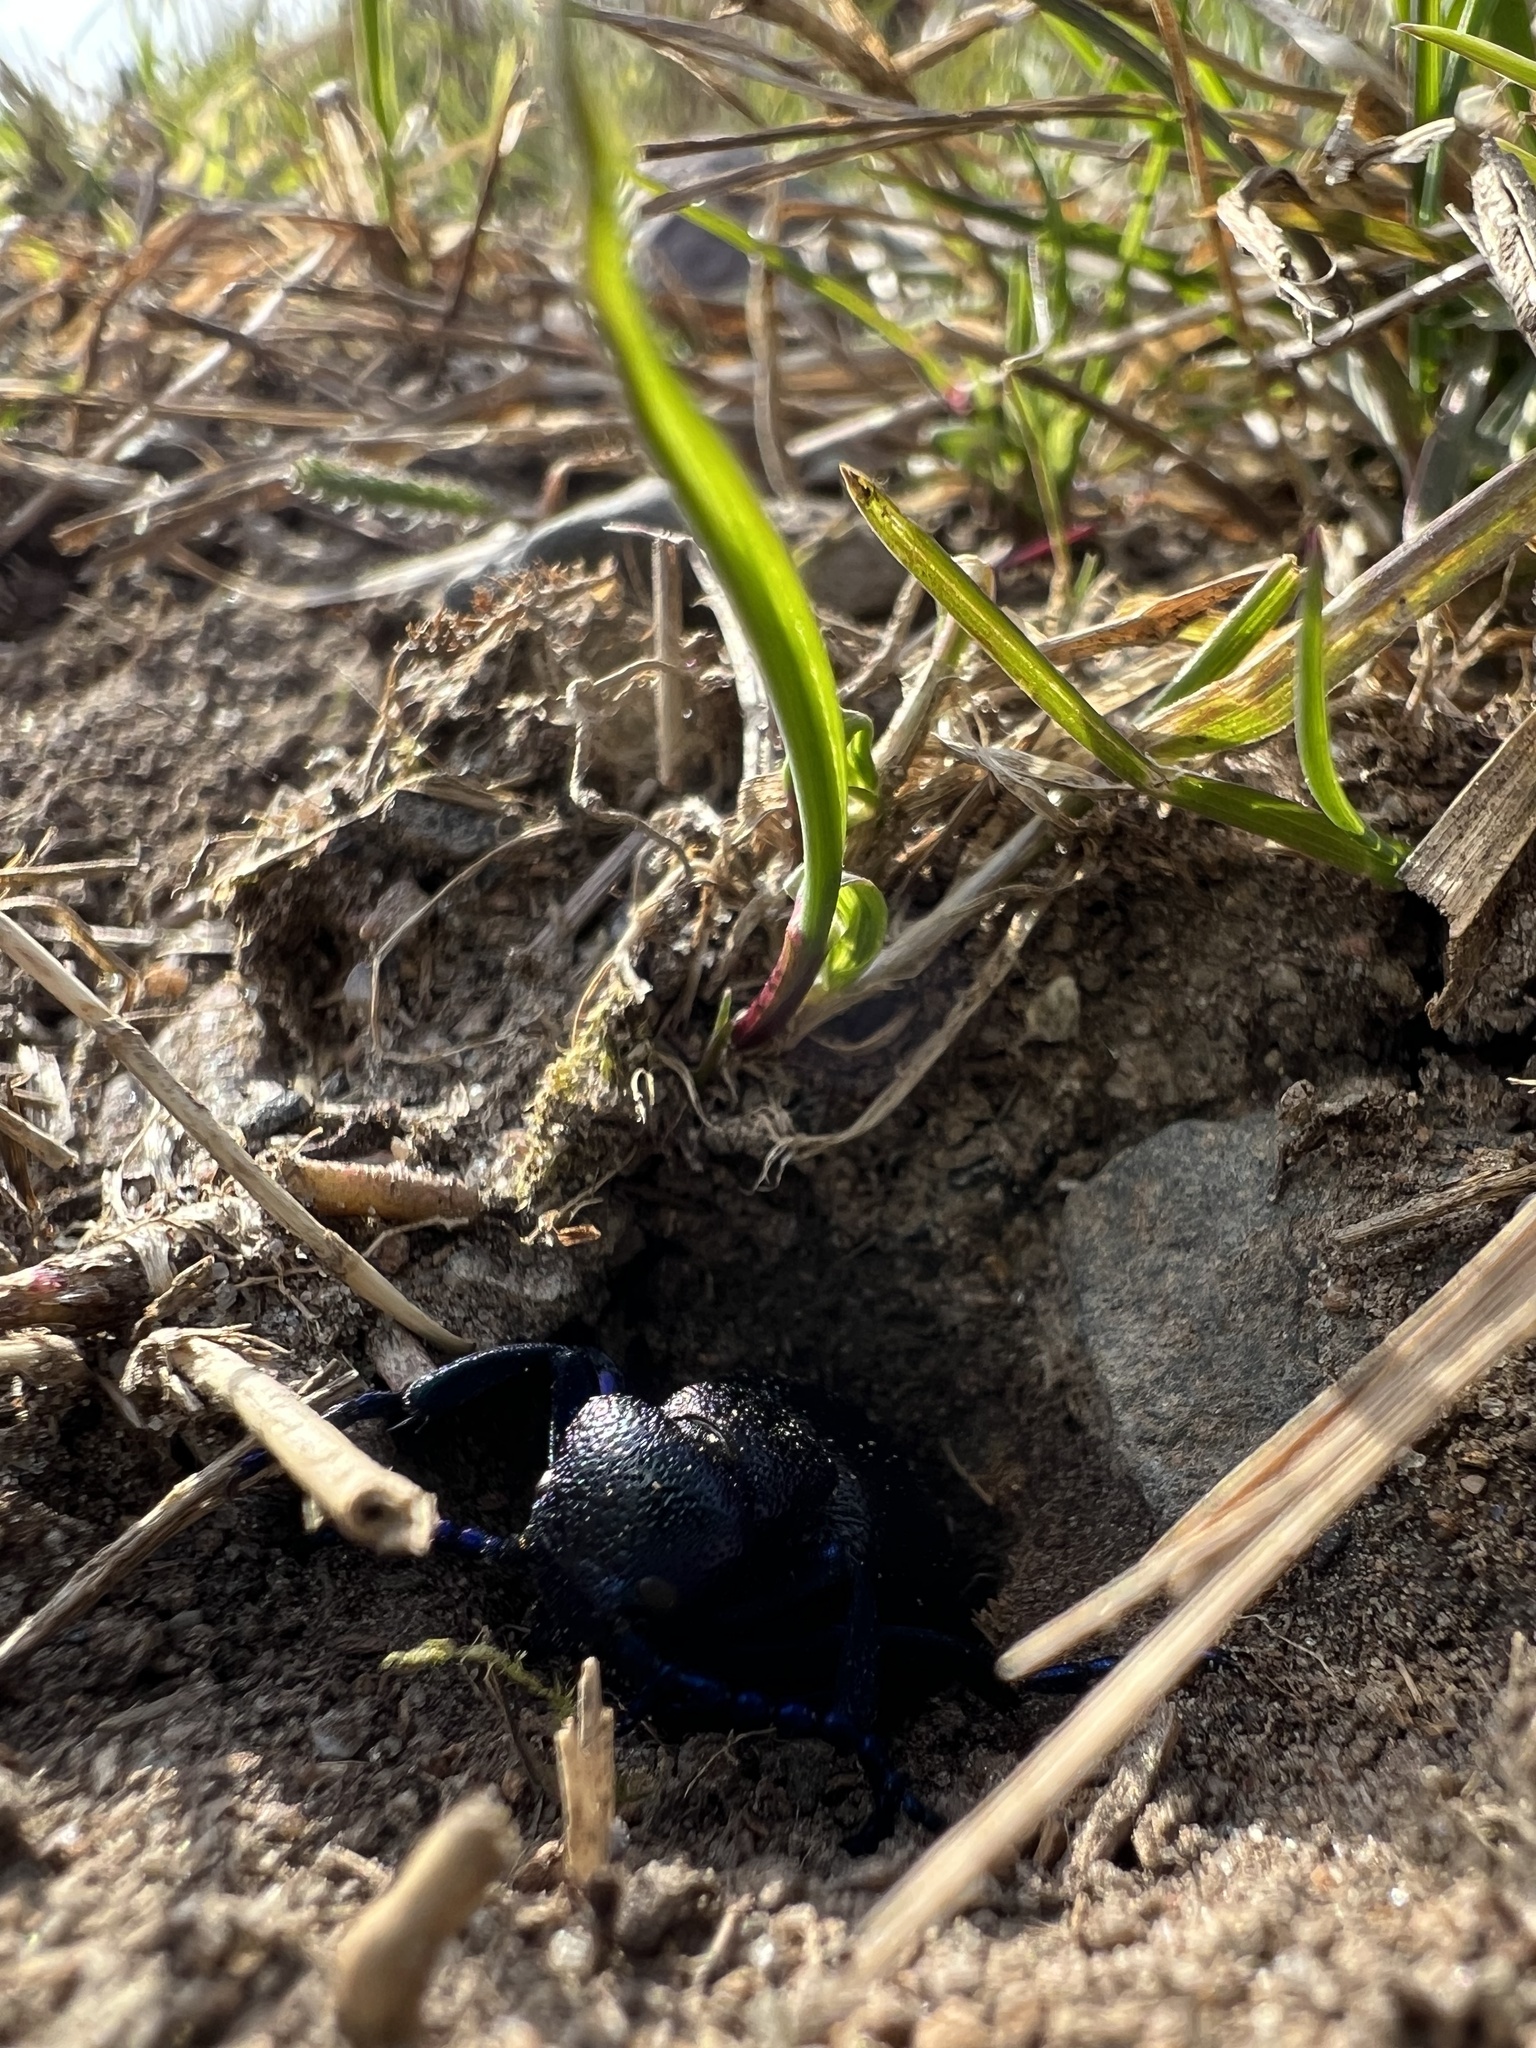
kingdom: Animalia
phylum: Arthropoda
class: Insecta
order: Coleoptera
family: Meloidae
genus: Meloe
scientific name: Meloe proscarabaeus
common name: Black oil-beetle
